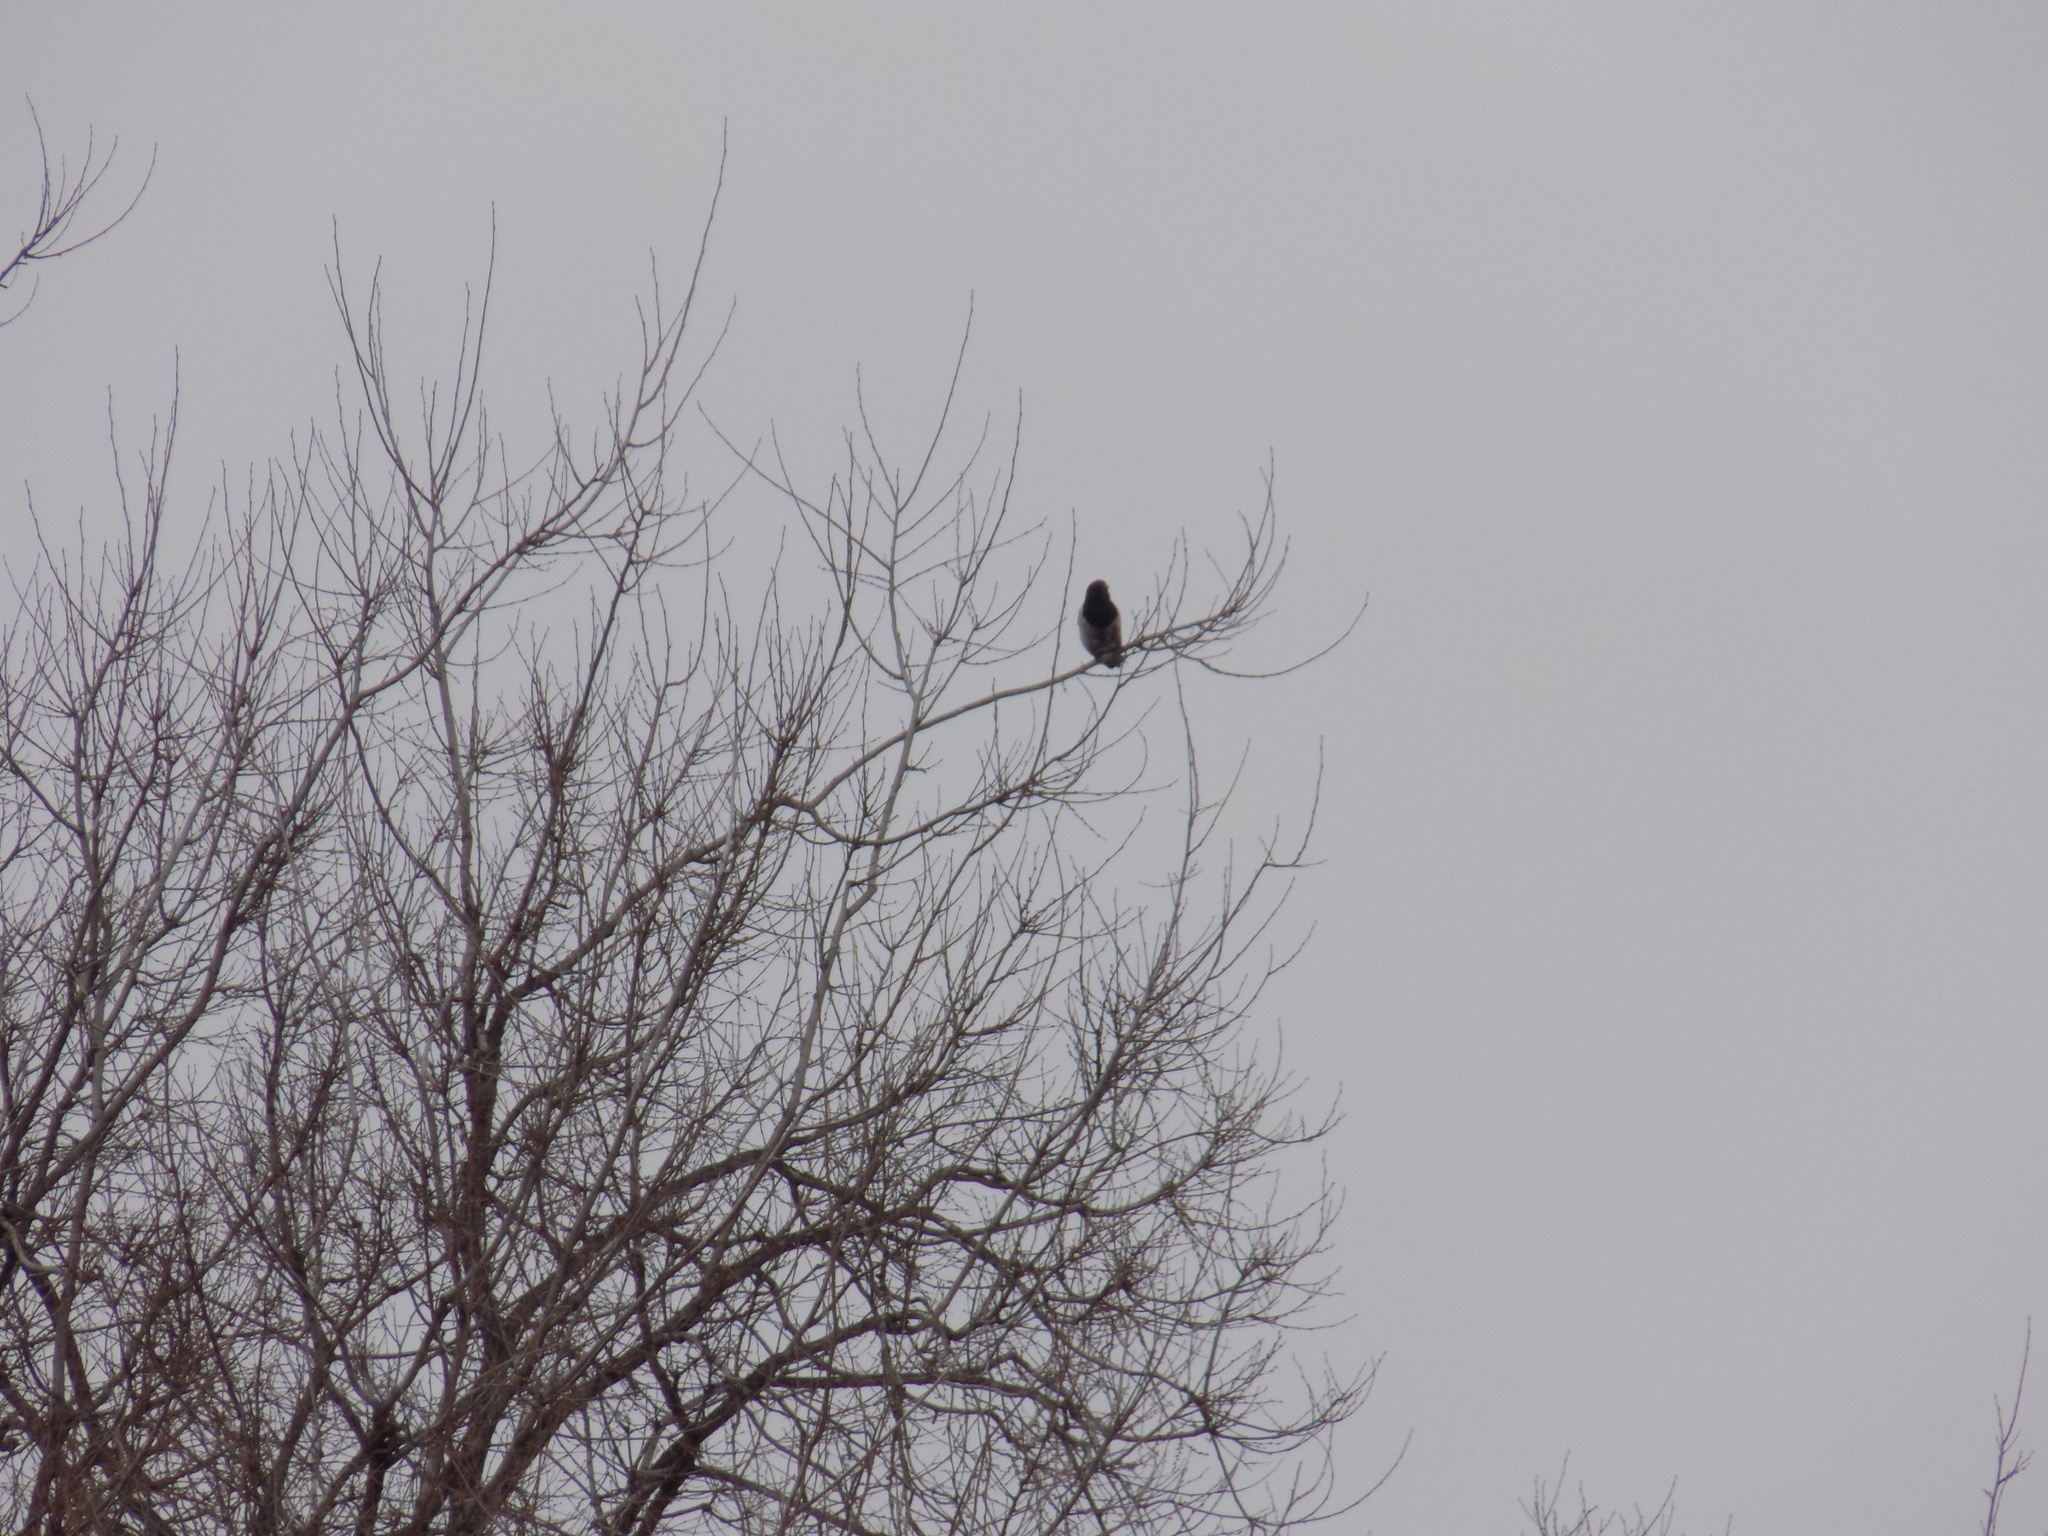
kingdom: Animalia
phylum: Chordata
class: Aves
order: Passeriformes
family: Corvidae
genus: Pica
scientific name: Pica pica
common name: Eurasian magpie
